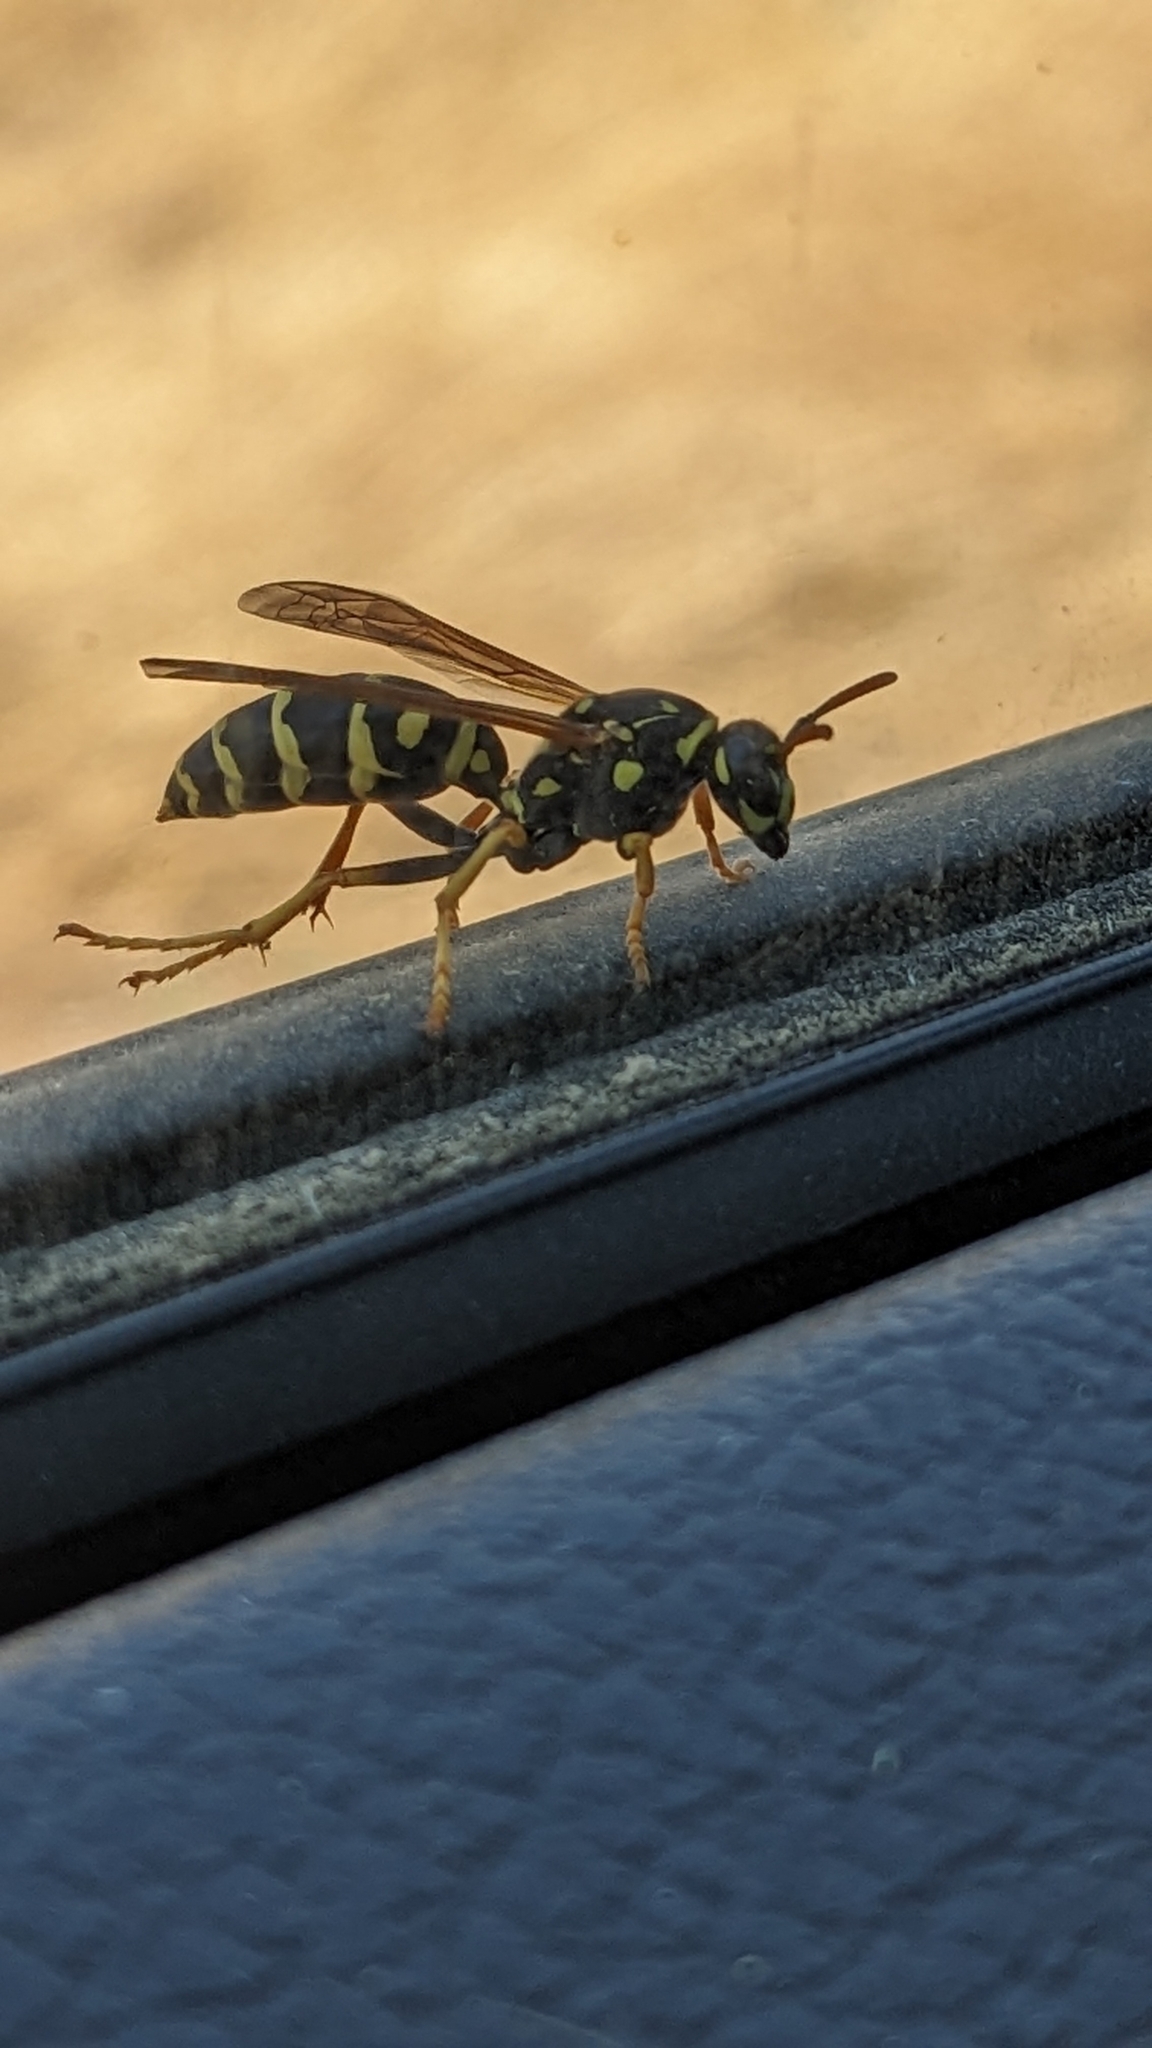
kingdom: Animalia
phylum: Arthropoda
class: Insecta
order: Hymenoptera
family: Eumenidae
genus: Polistes
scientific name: Polistes dominula
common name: Paper wasp
